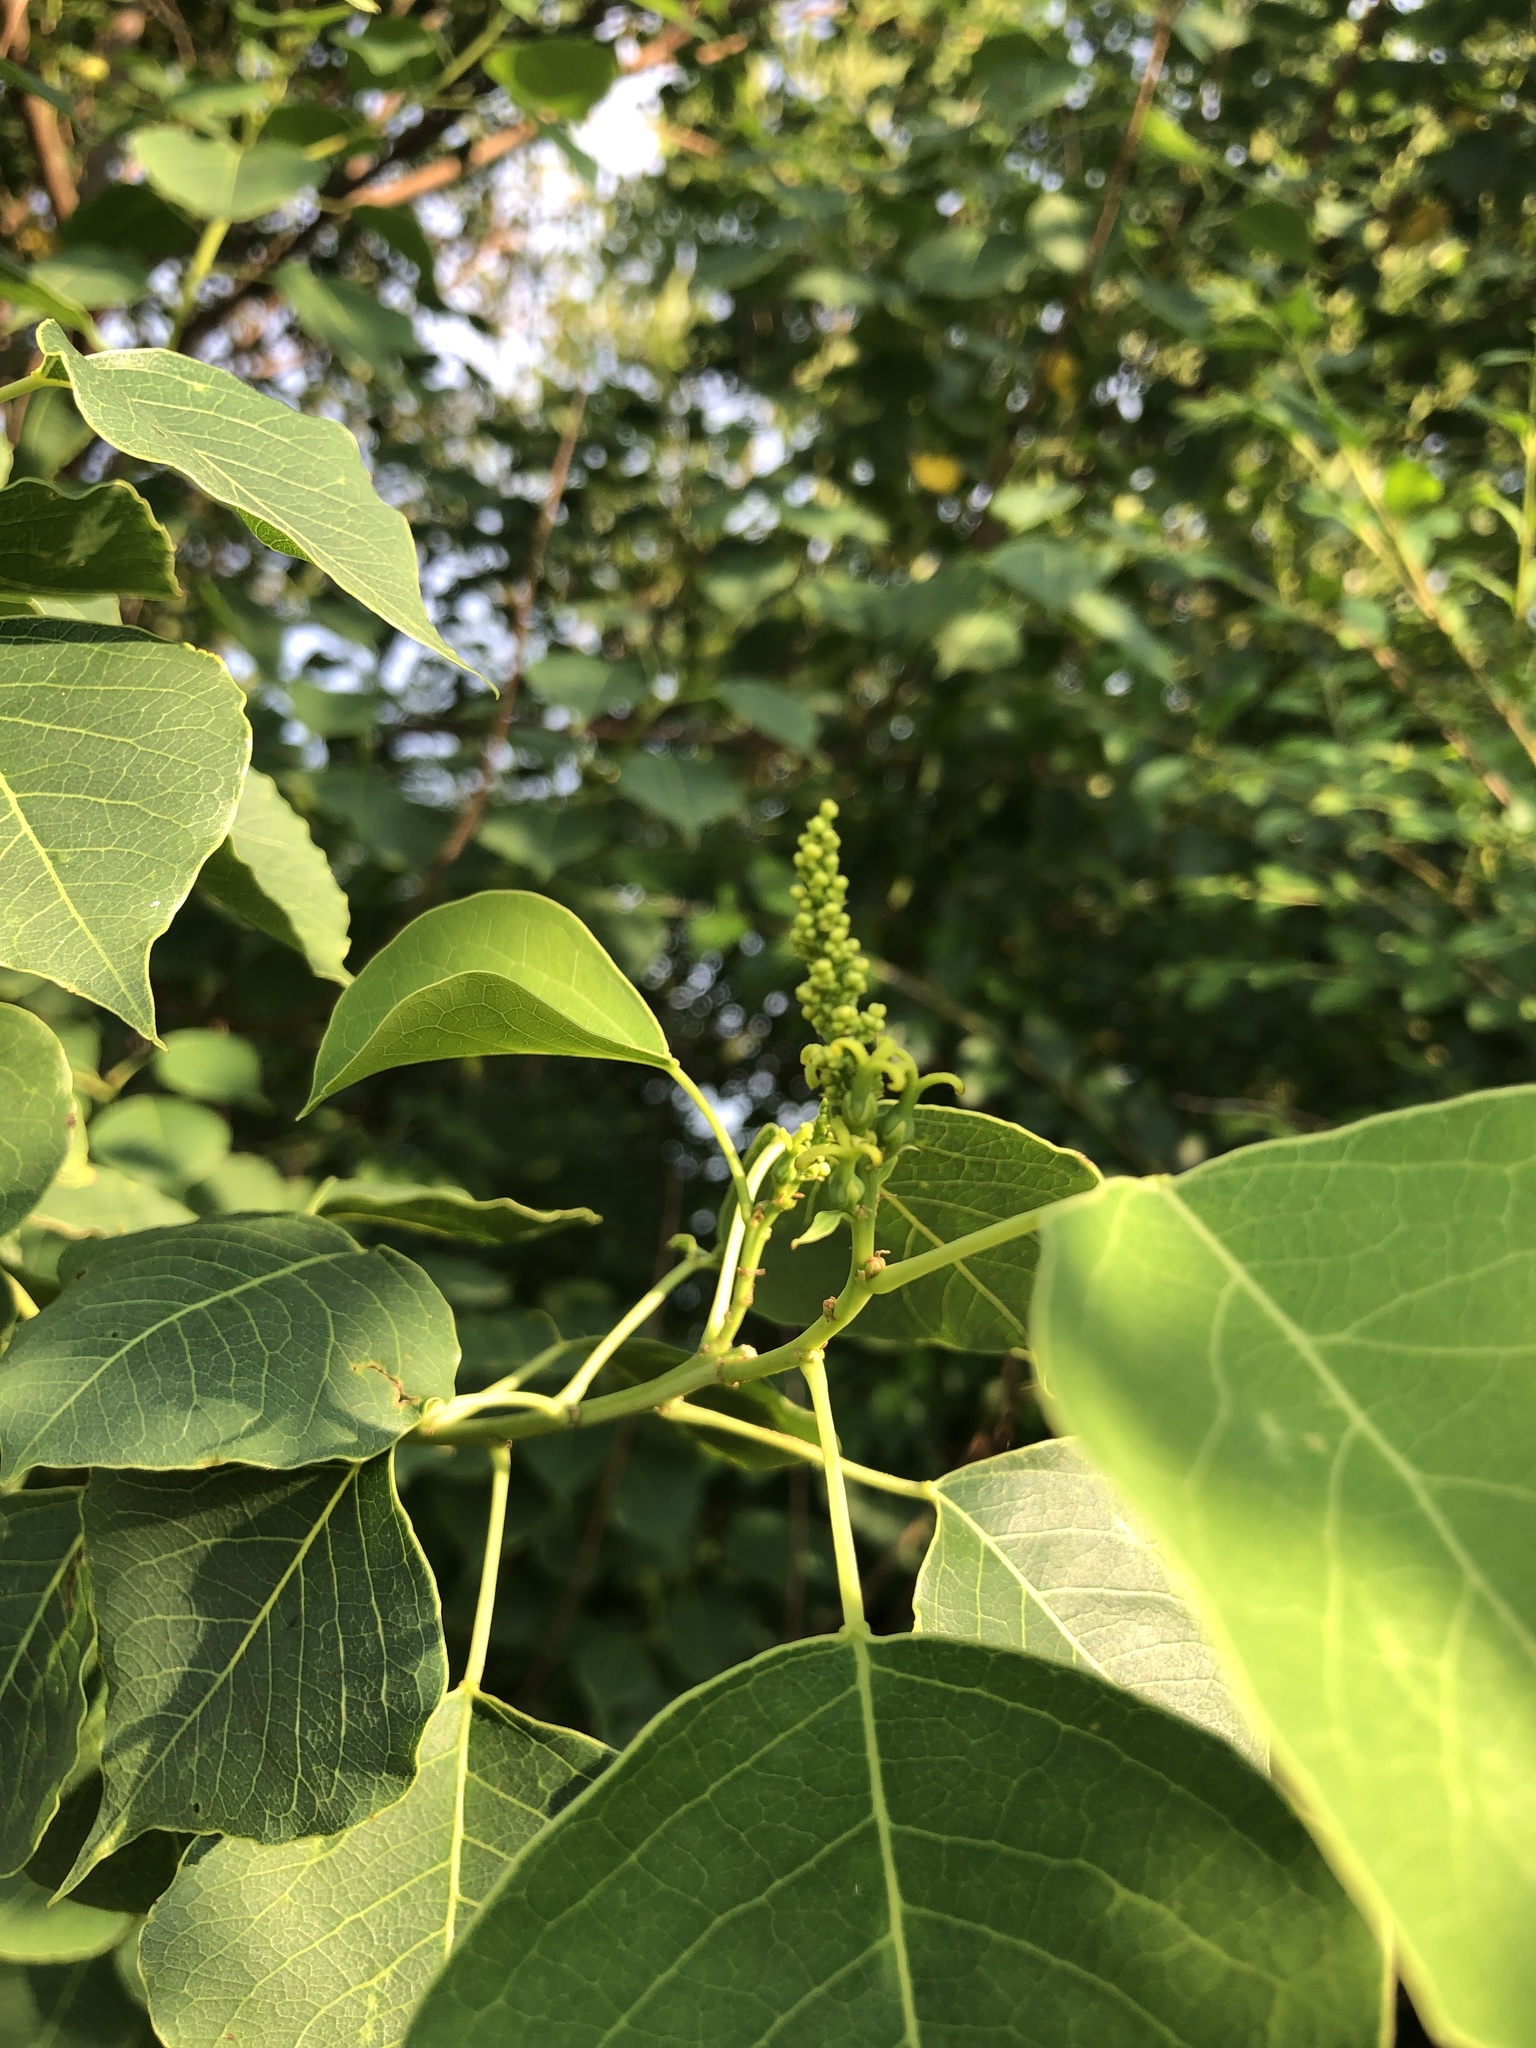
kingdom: Plantae
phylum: Tracheophyta
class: Magnoliopsida
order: Malpighiales
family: Euphorbiaceae
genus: Triadica
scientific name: Triadica sebifera
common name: Chinese tallow
